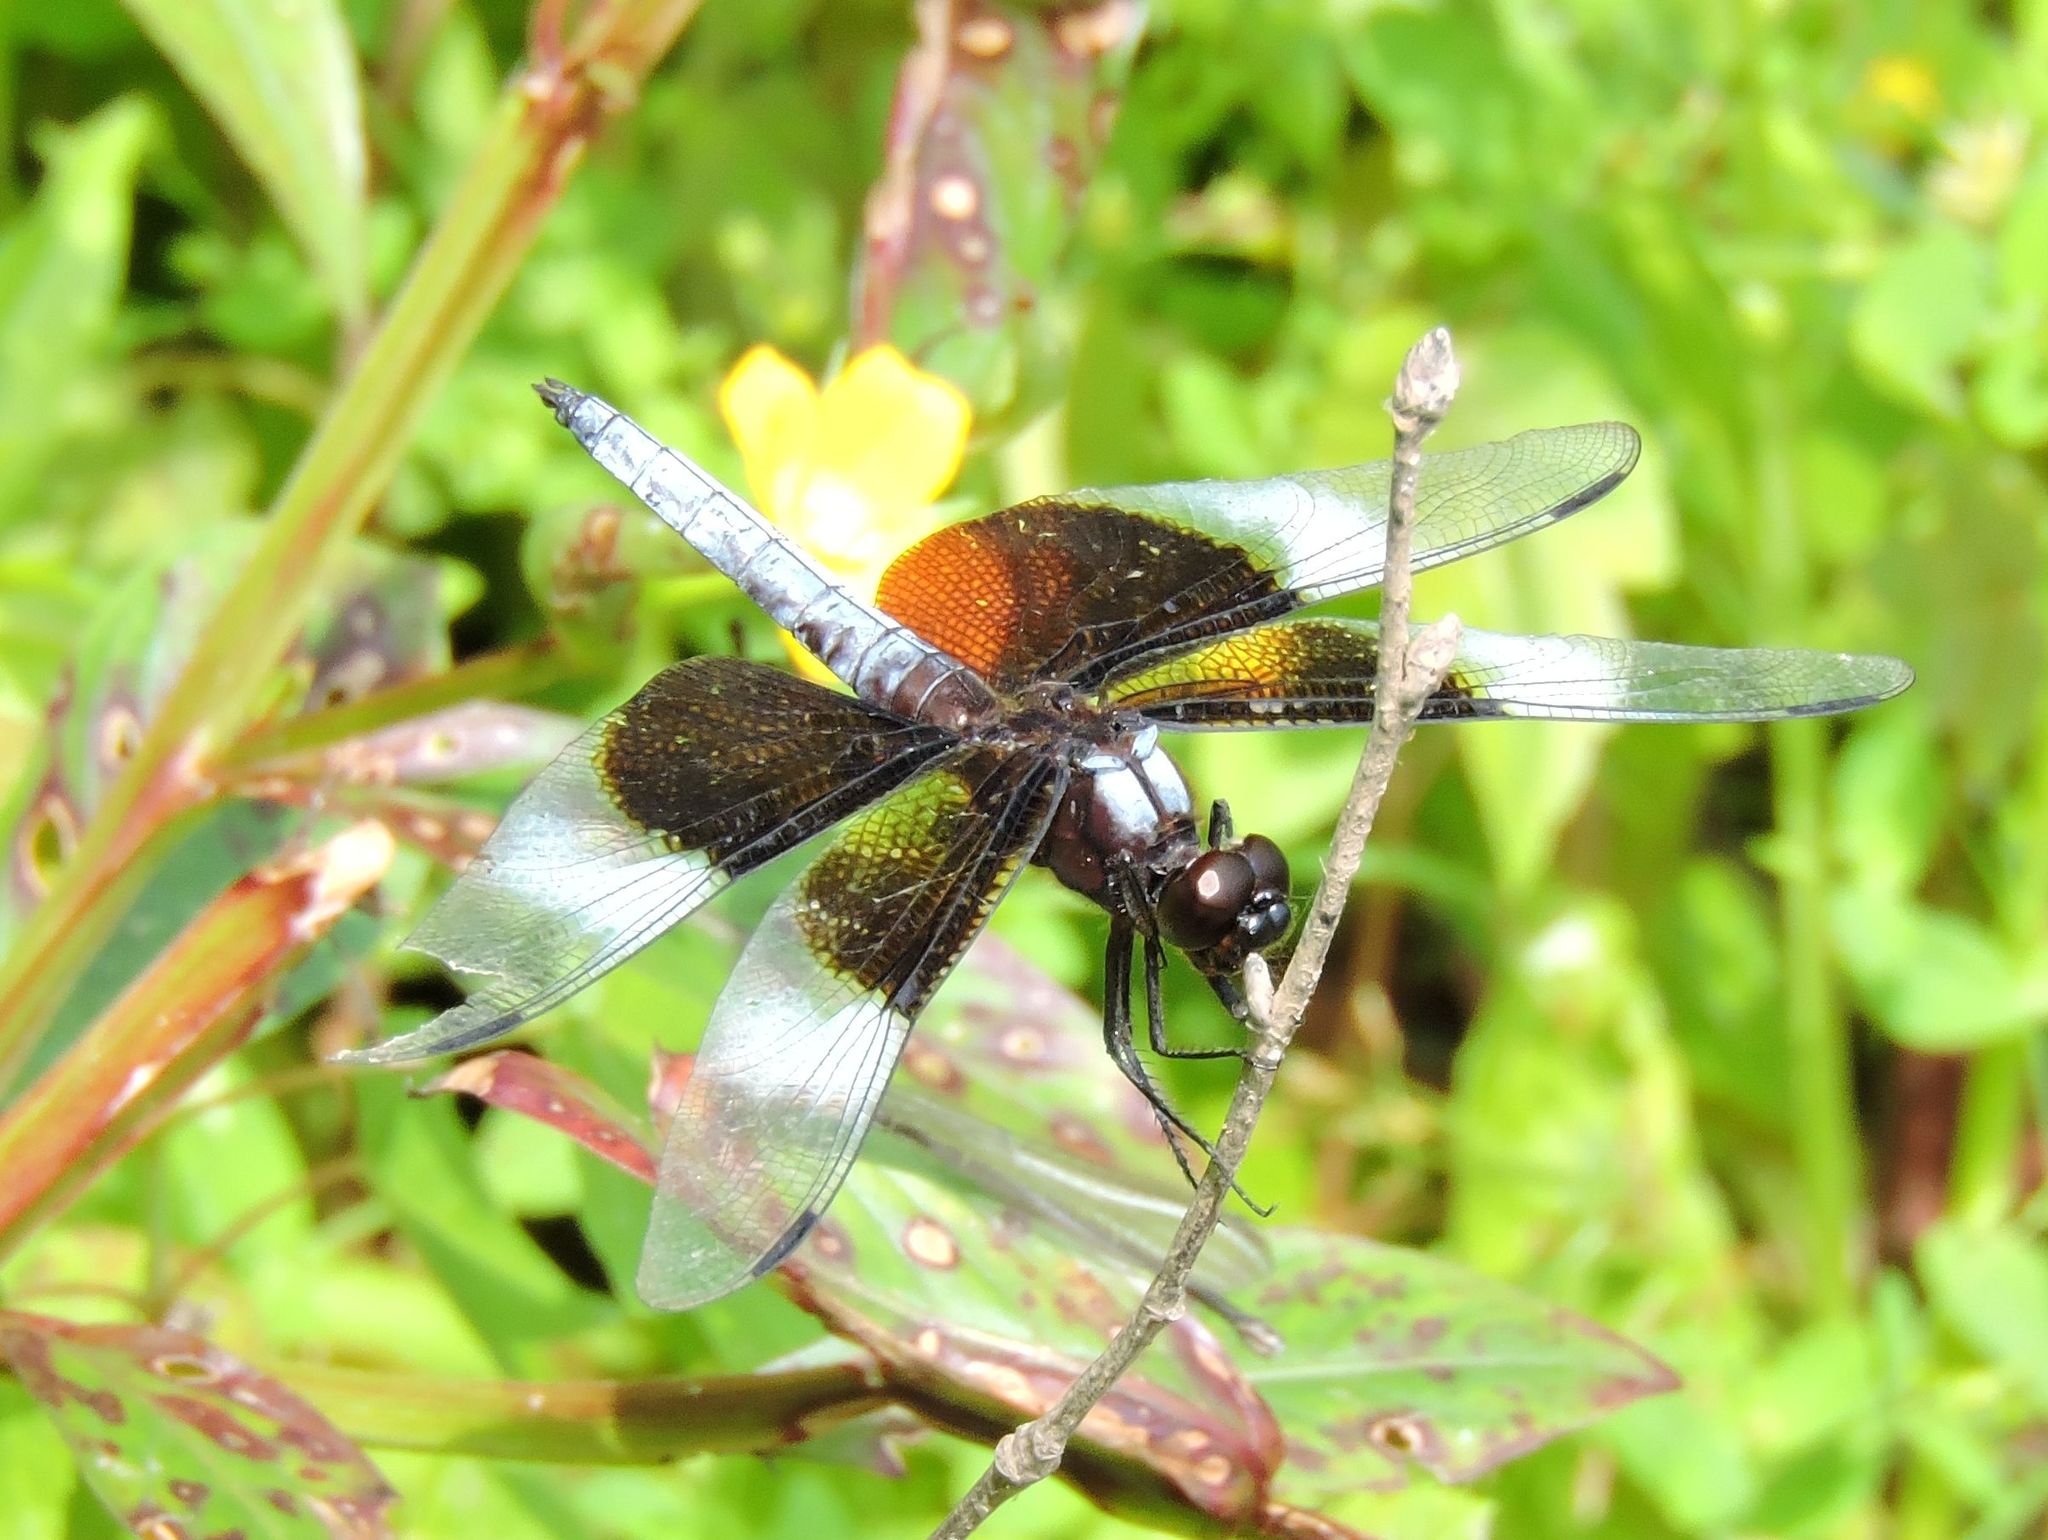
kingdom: Animalia
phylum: Arthropoda
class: Insecta
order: Odonata
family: Libellulidae
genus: Libellula
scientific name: Libellula luctuosa
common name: Widow skimmer
